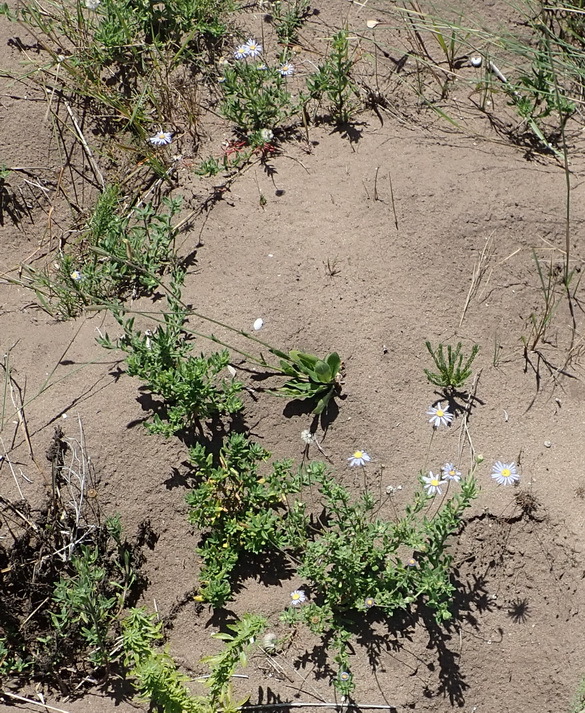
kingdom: Plantae
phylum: Tracheophyta
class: Magnoliopsida
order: Asterales
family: Asteraceae
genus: Felicia
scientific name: Felicia amoena
